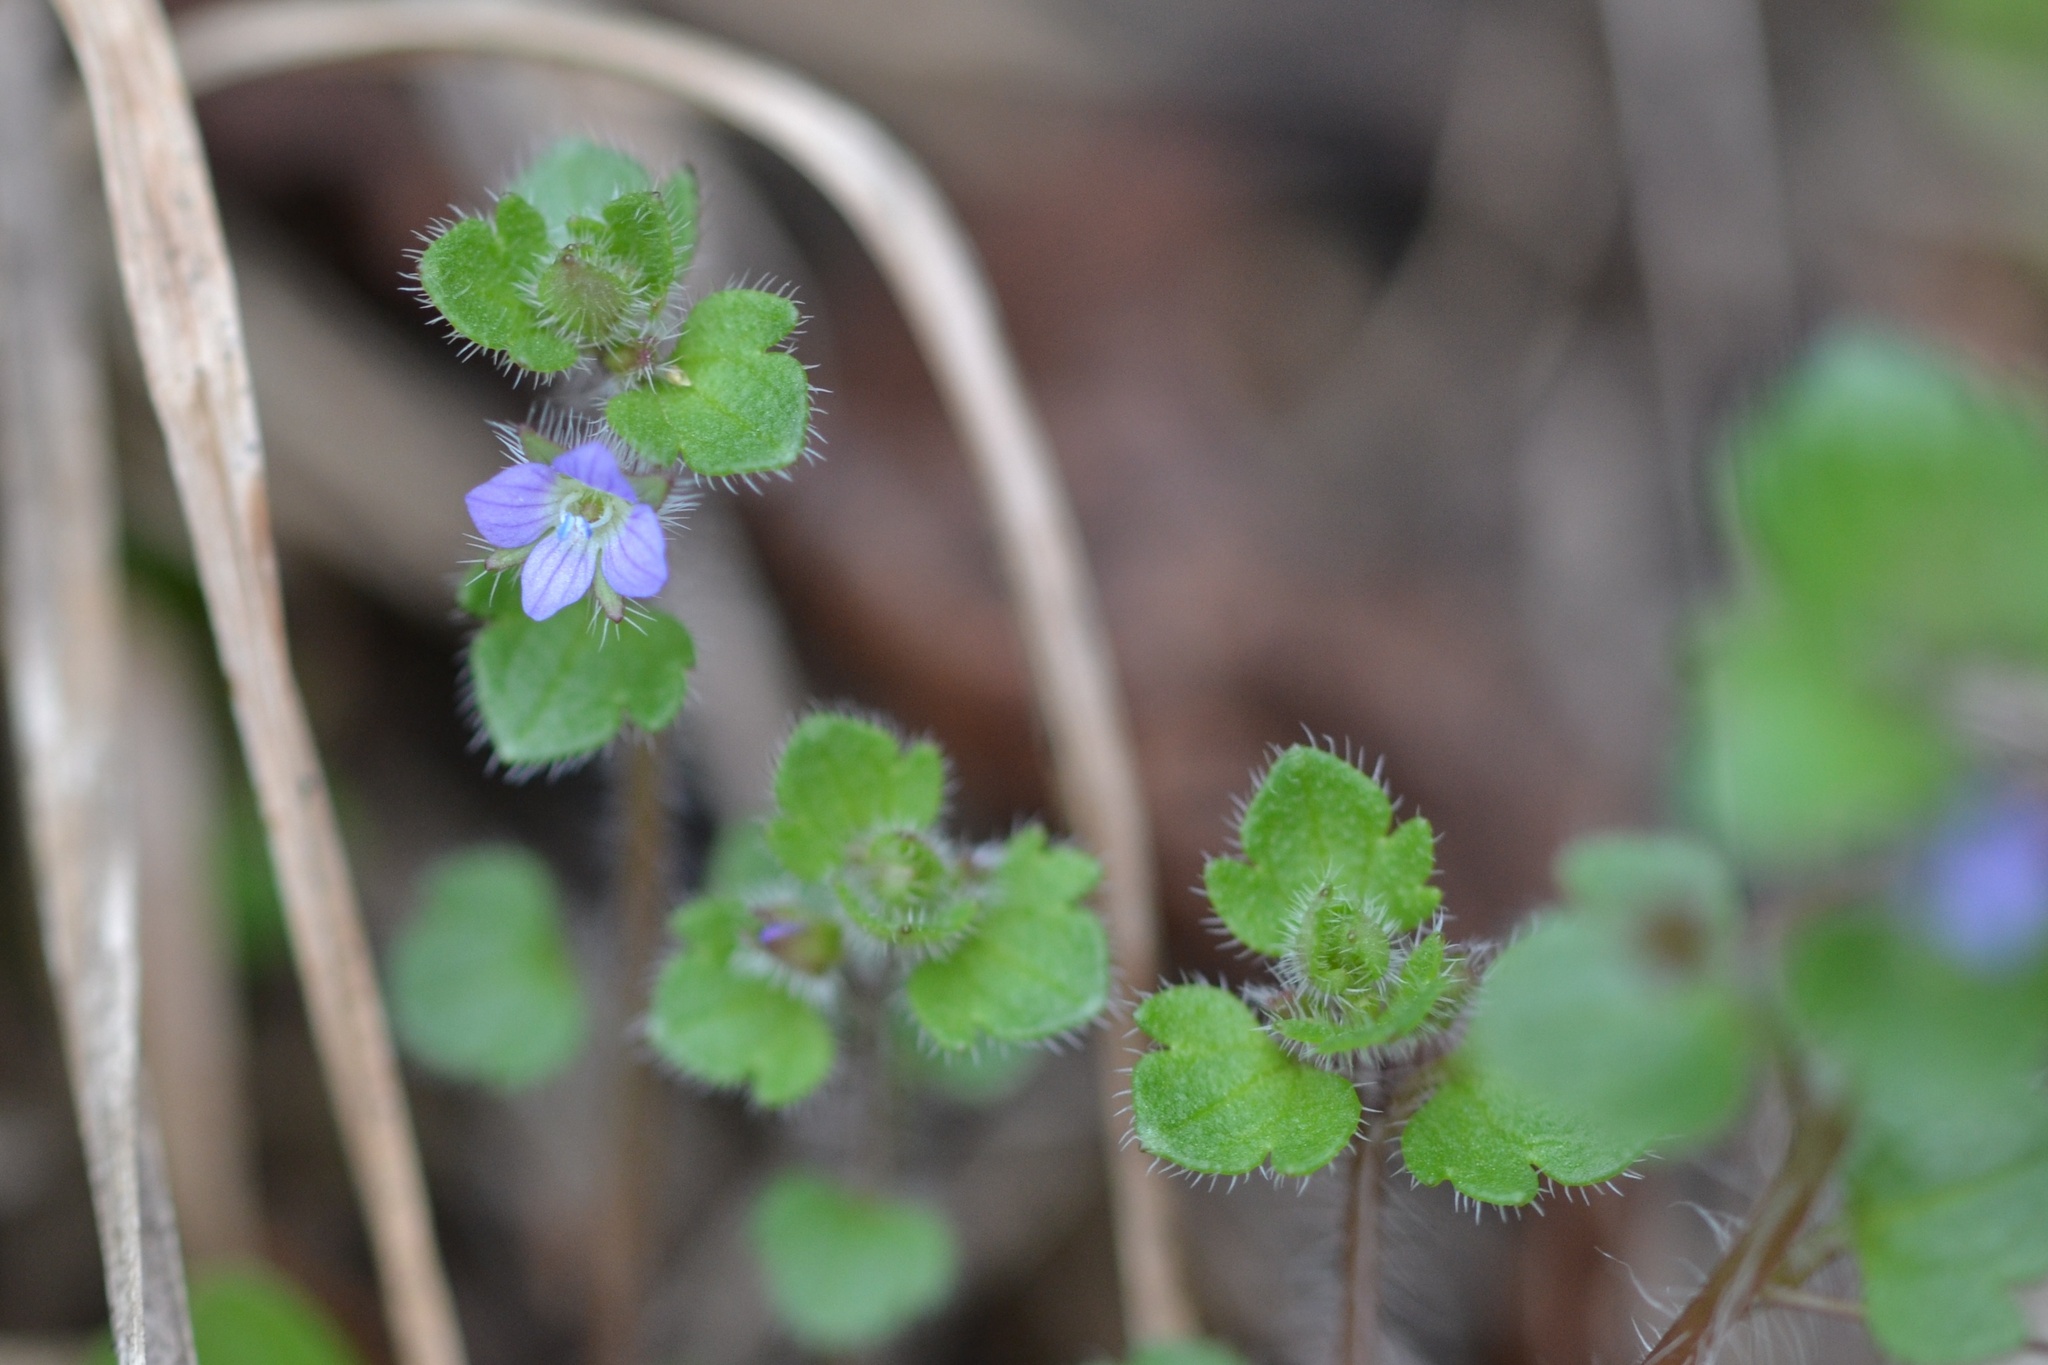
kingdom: Plantae
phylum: Tracheophyta
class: Magnoliopsida
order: Lamiales
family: Plantaginaceae
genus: Veronica
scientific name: Veronica hederifolia
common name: Ivy-leaved speedwell
